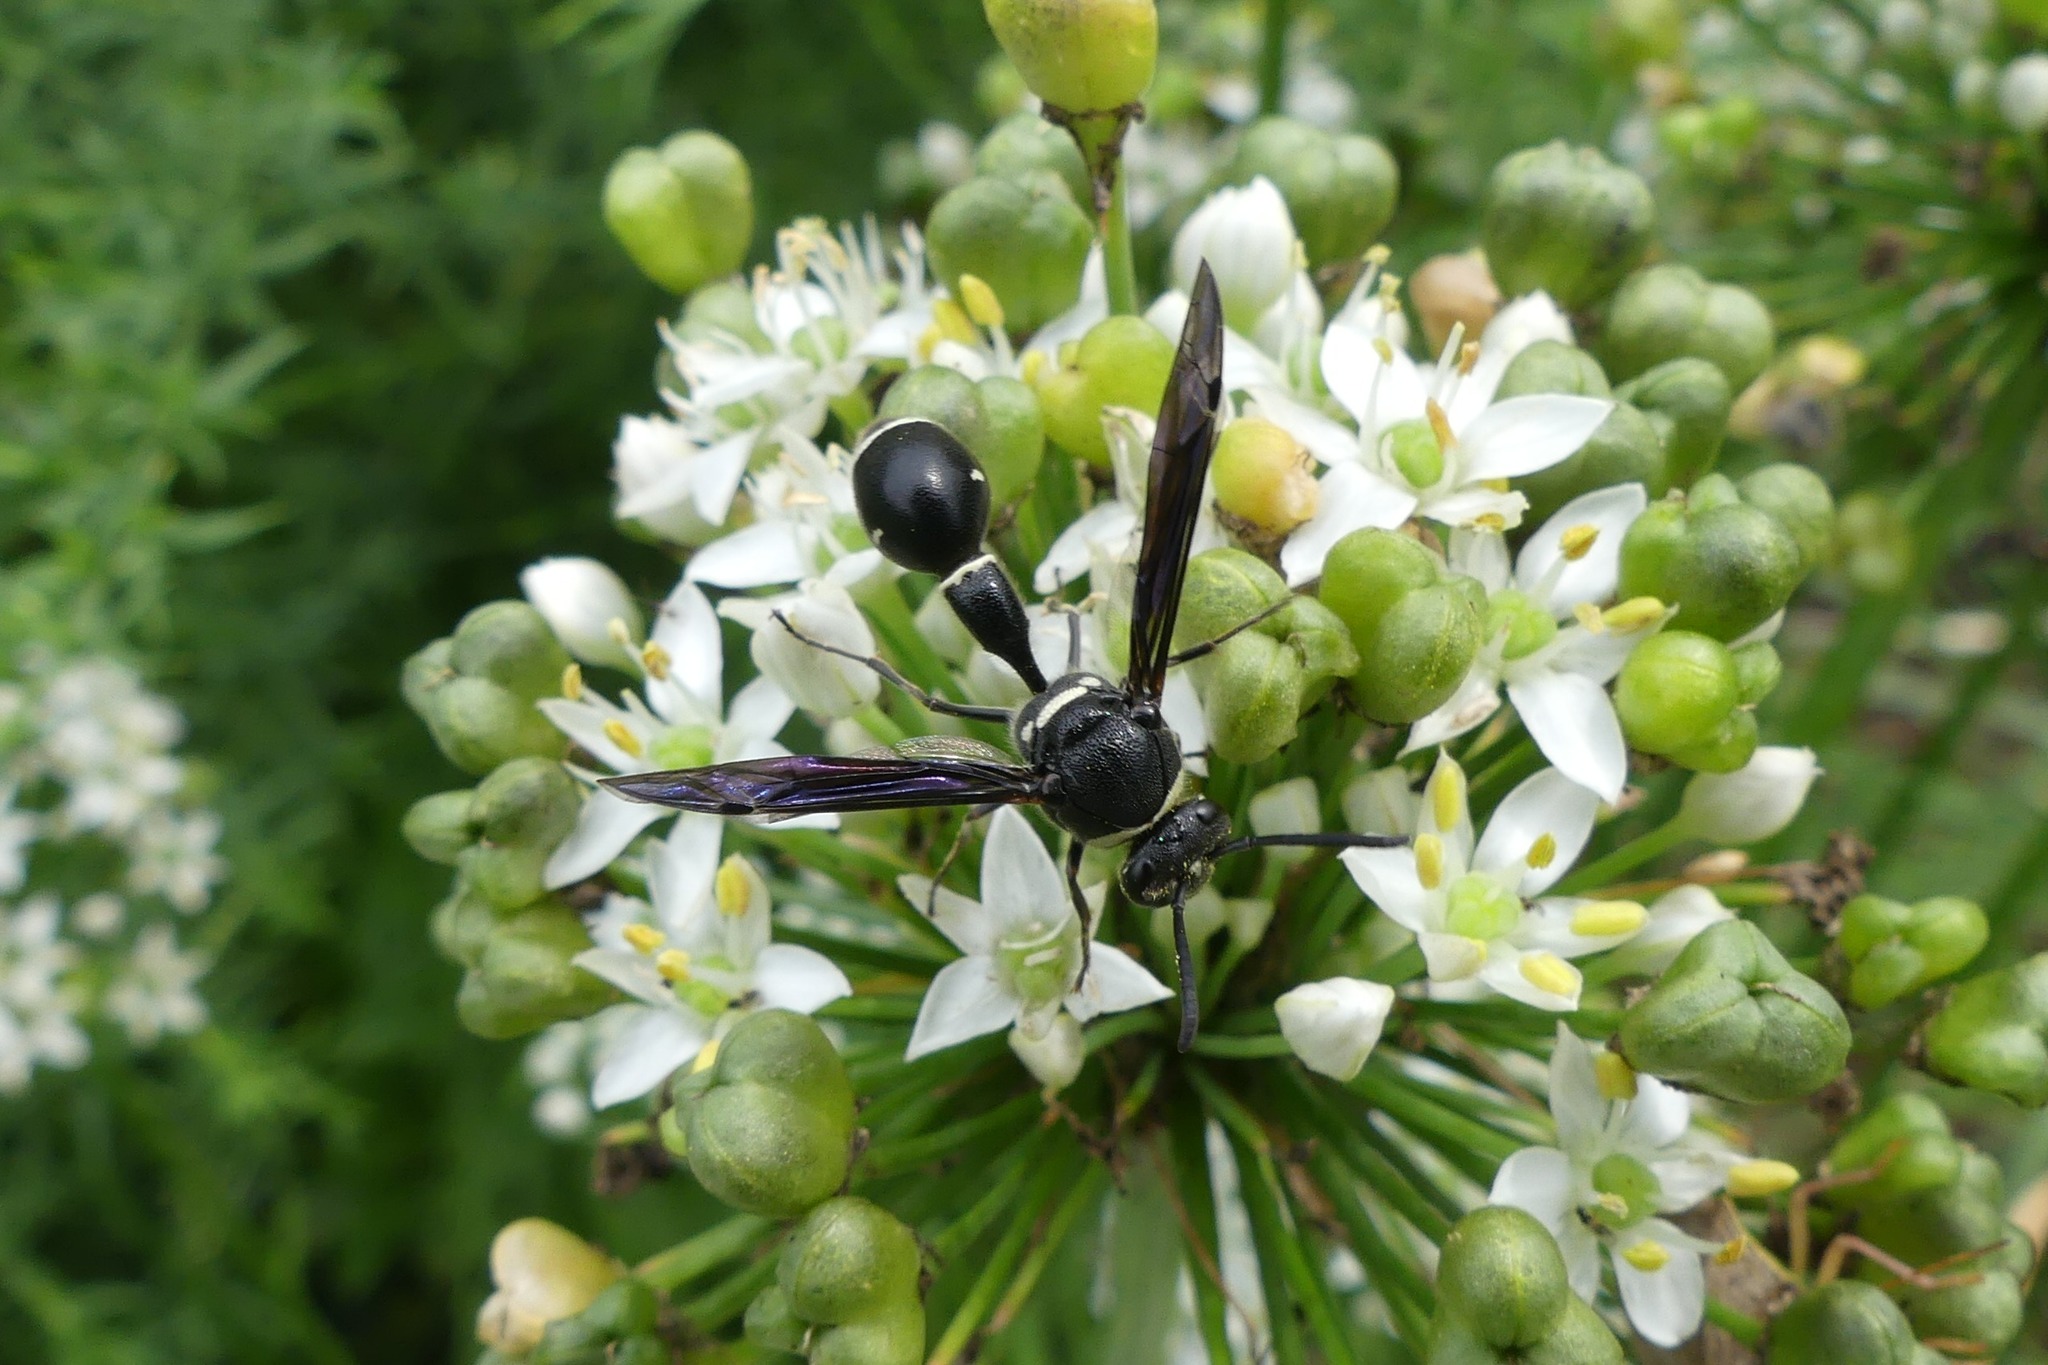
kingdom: Animalia
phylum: Arthropoda
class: Insecta
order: Hymenoptera
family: Vespidae
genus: Eumenes
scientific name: Eumenes fraternus
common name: Fraternal potter wasp
